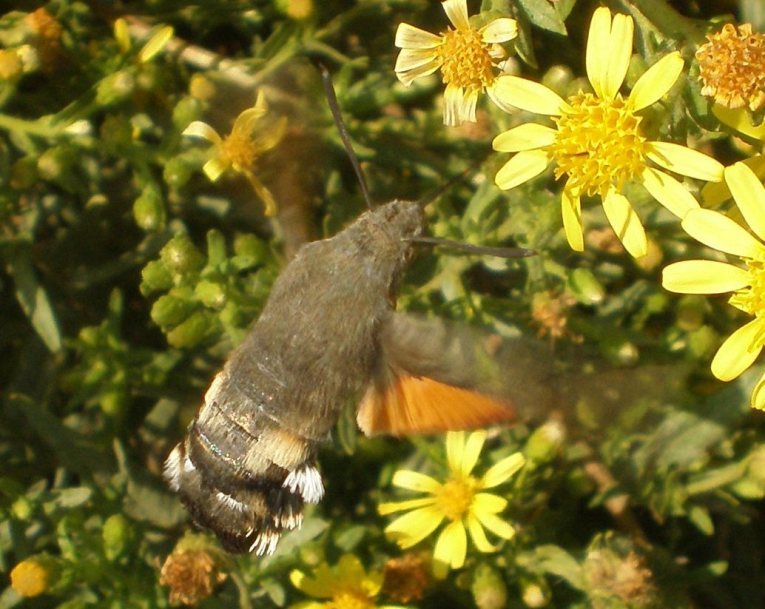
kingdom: Animalia
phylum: Arthropoda
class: Insecta
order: Lepidoptera
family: Sphingidae
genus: Macroglossum
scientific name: Macroglossum stellatarum
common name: Humming-bird hawk-moth
